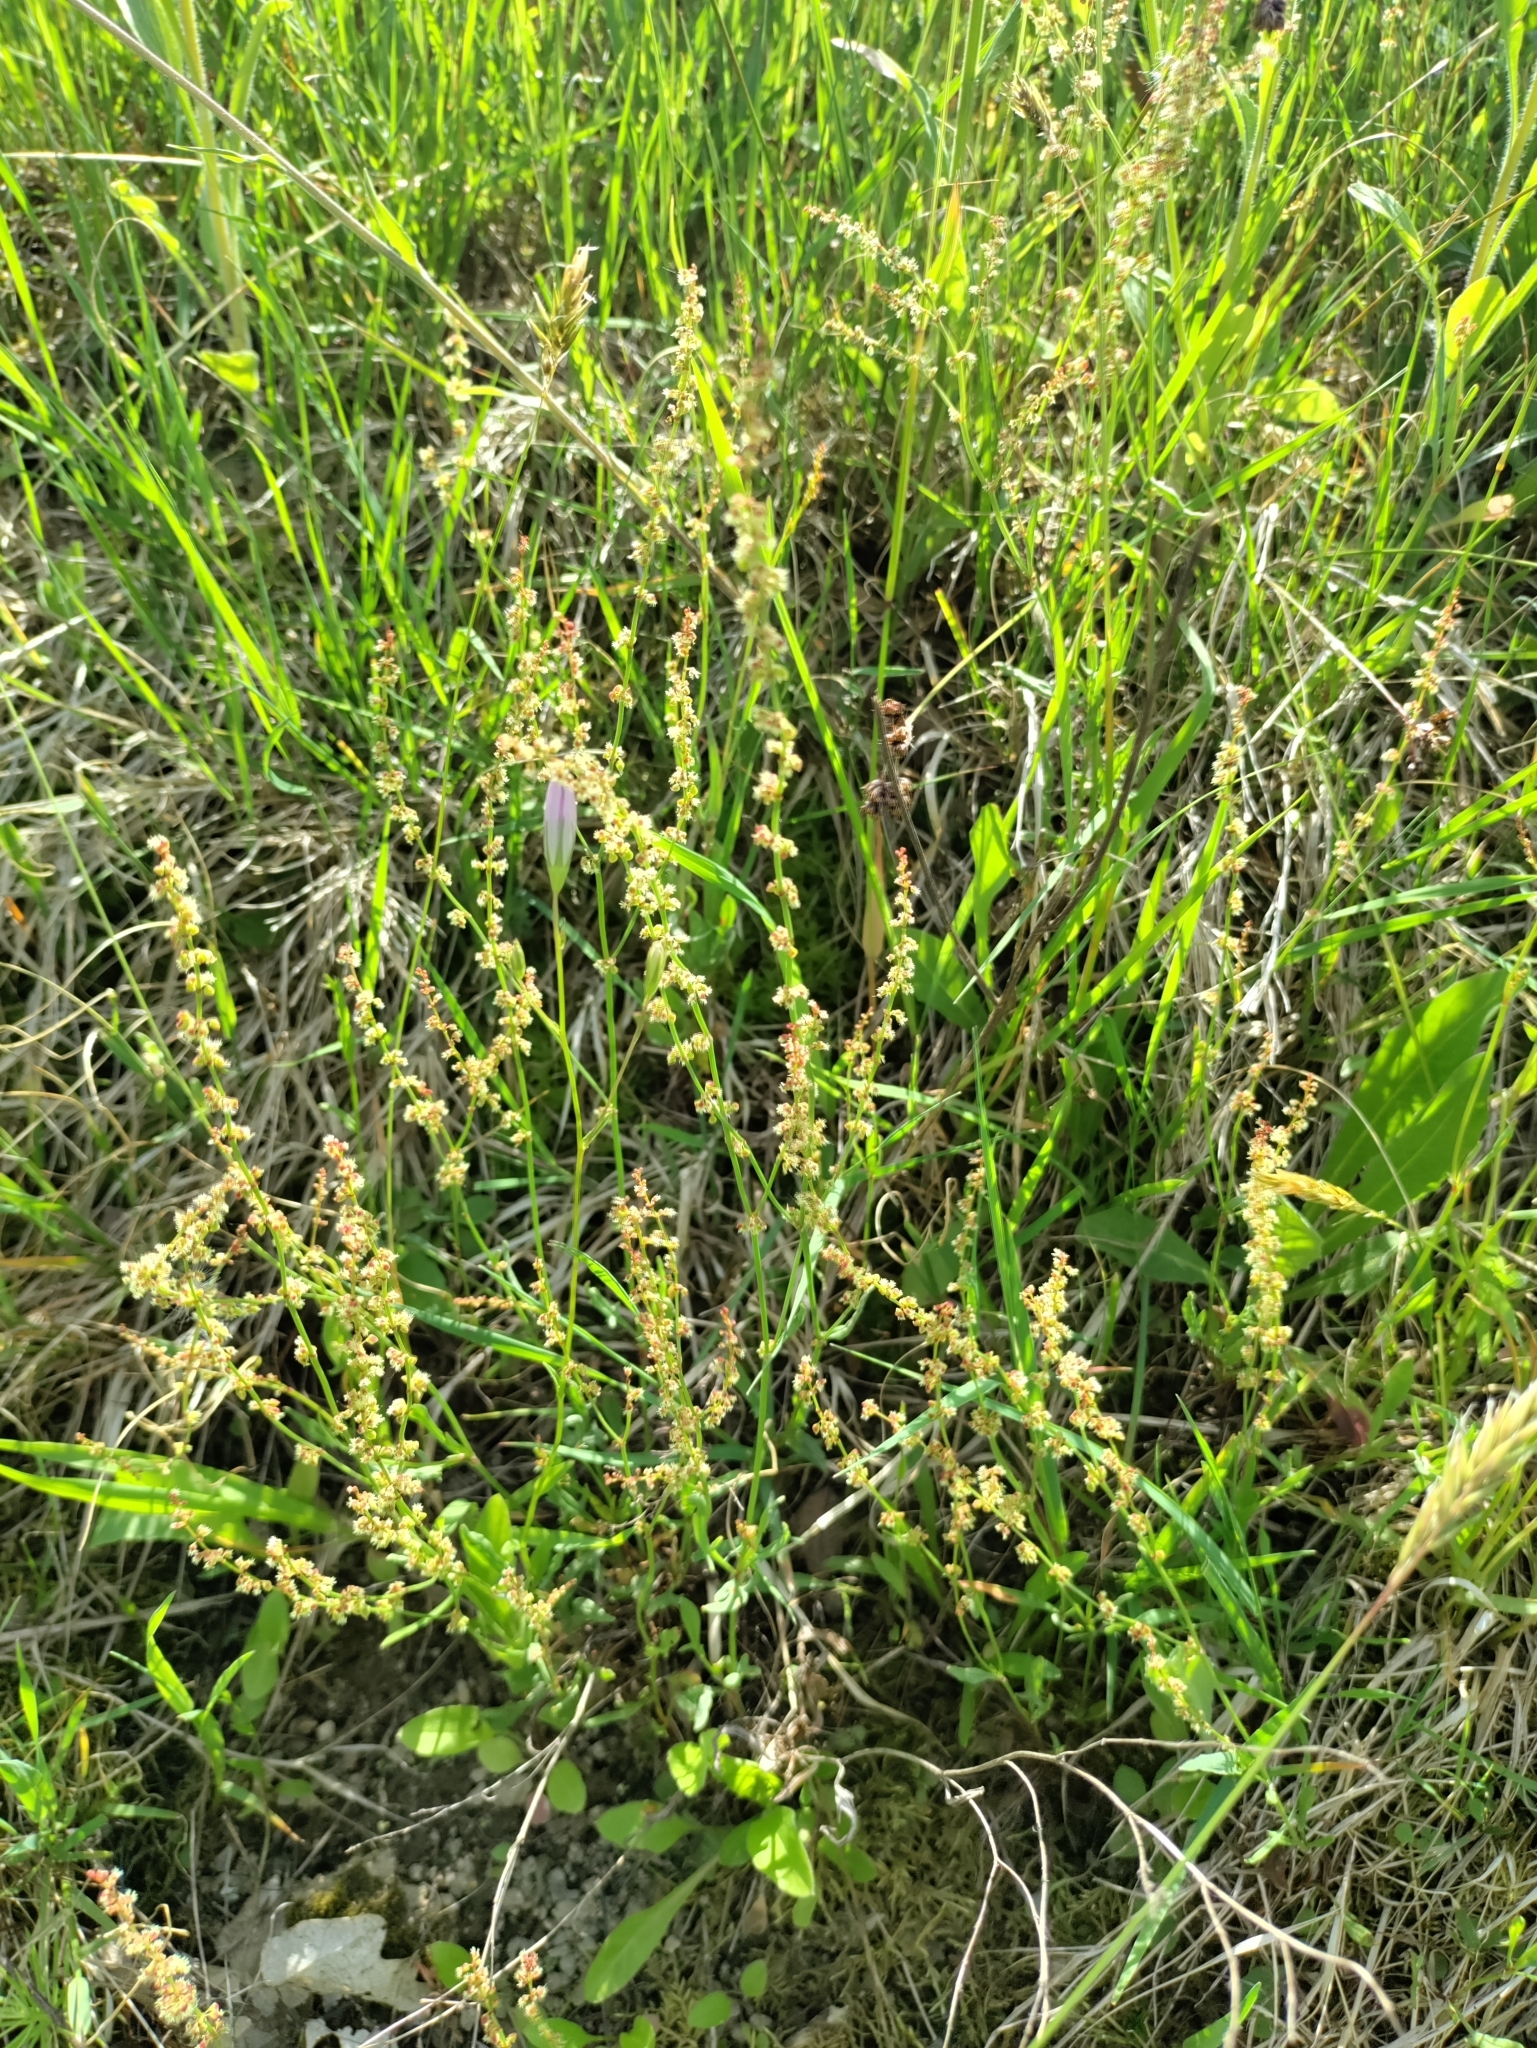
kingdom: Plantae
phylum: Tracheophyta
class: Magnoliopsida
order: Caryophyllales
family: Polygonaceae
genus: Rumex
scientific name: Rumex acetosella
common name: Common sheep sorrel
